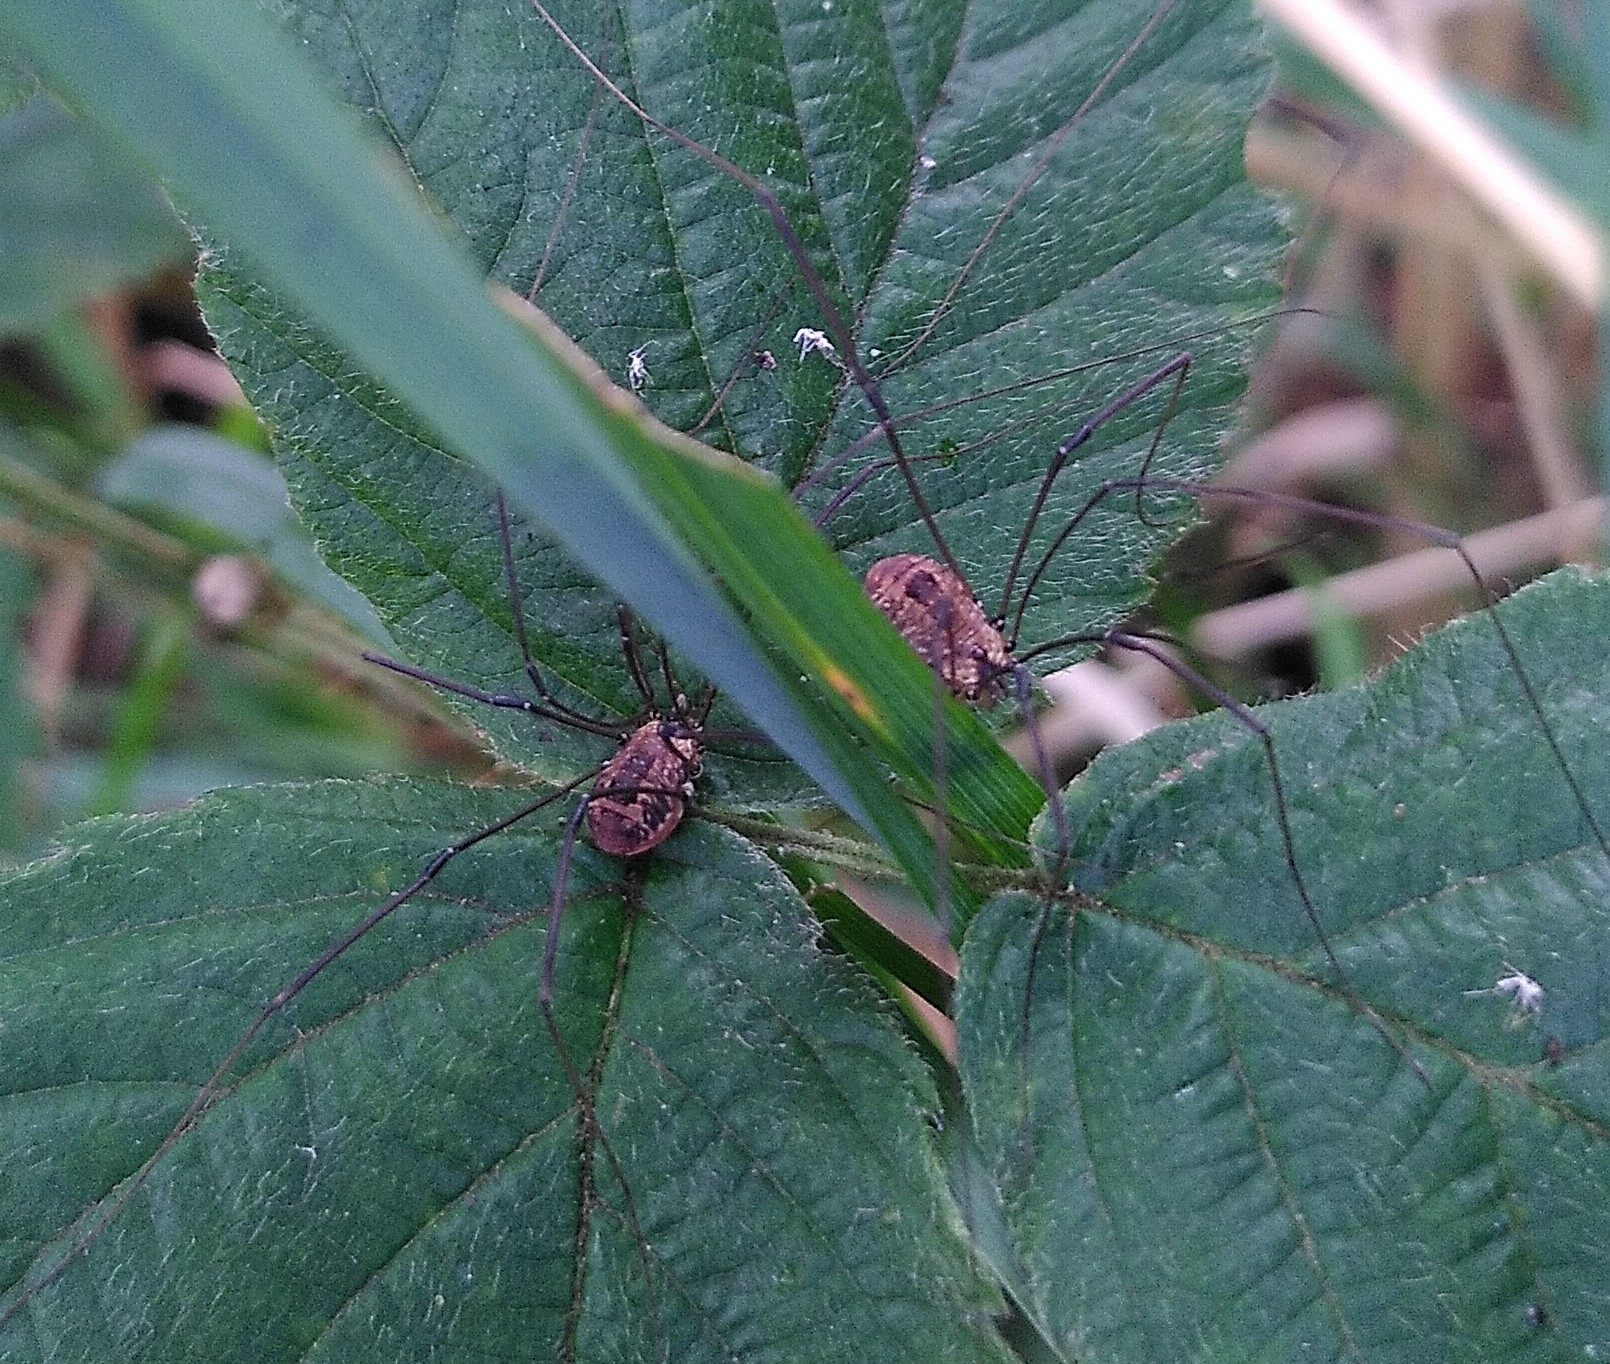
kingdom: Animalia
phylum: Arthropoda
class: Arachnida
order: Opiliones
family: Sclerosomatidae
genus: Leiobunum
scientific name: Leiobunum rotundum
